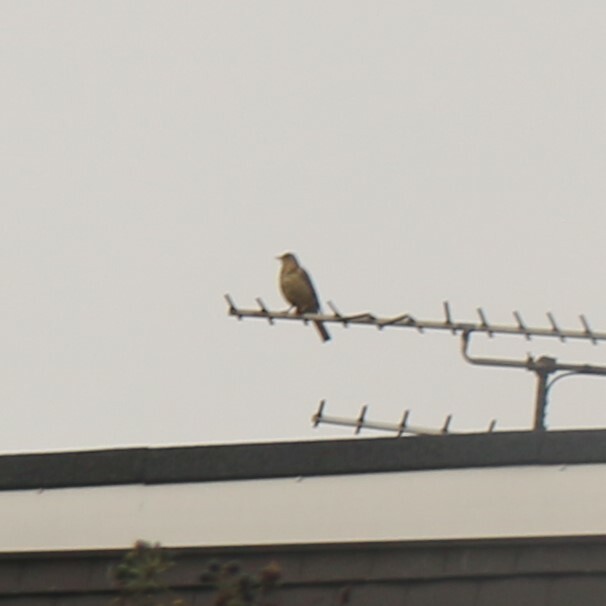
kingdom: Animalia
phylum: Chordata
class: Aves
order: Passeriformes
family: Turdidae
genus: Turdus
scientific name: Turdus viscivorus
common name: Mistle thrush
